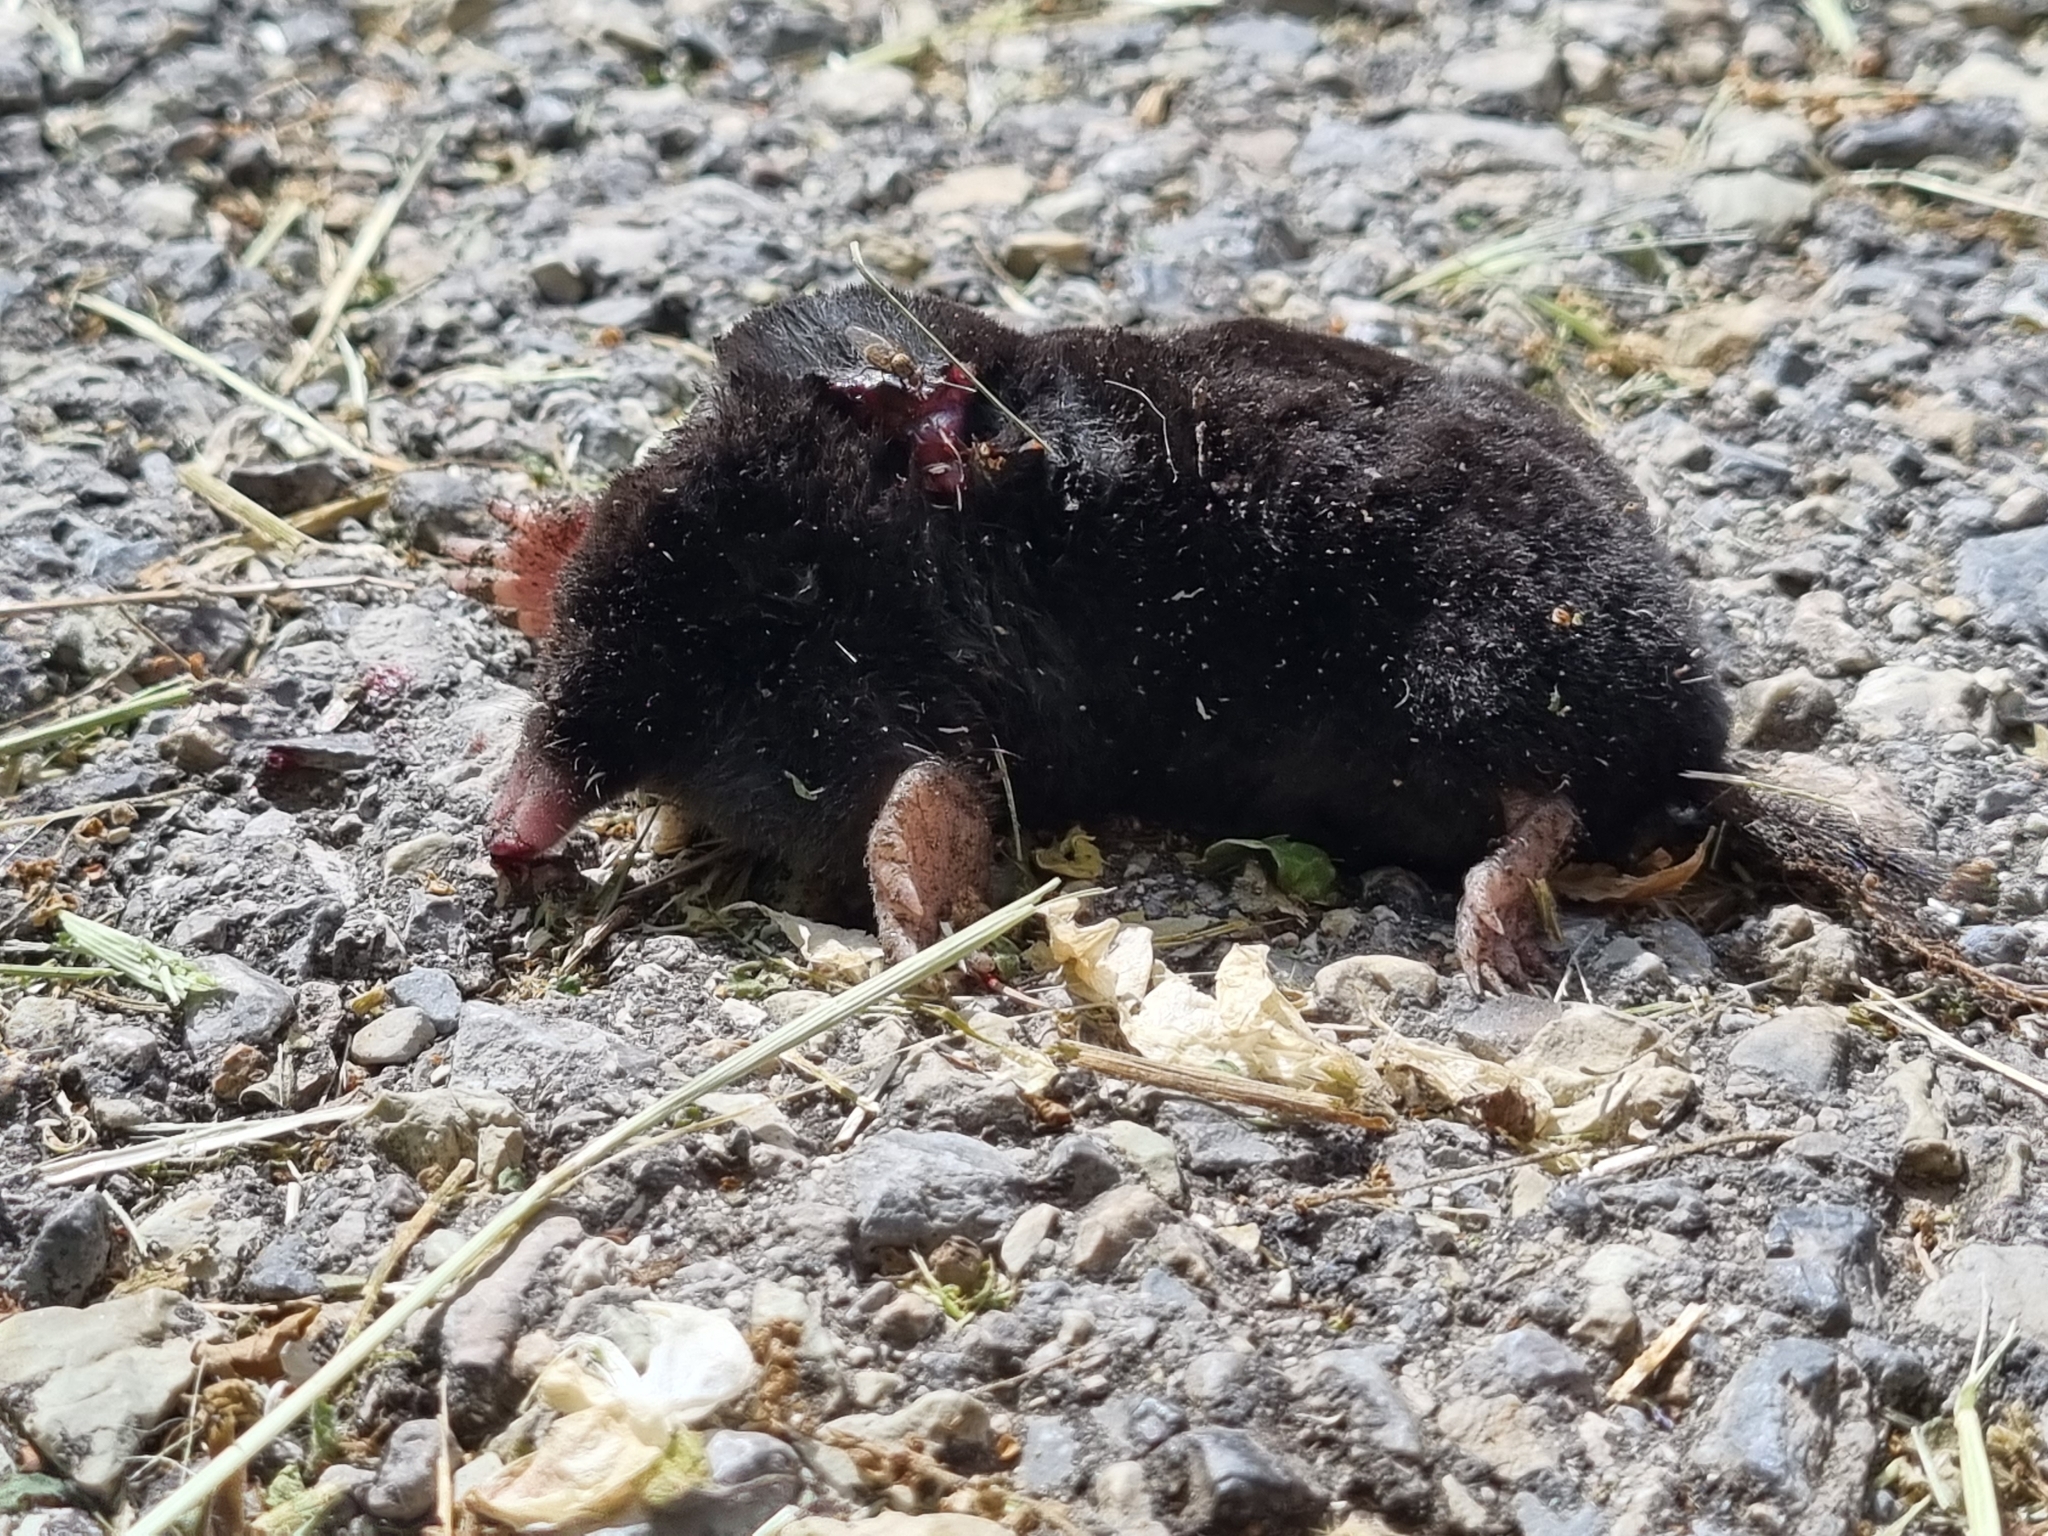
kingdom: Animalia
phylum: Chordata
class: Mammalia
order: Soricomorpha
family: Talpidae
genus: Talpa
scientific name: Talpa europaea
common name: European mole
